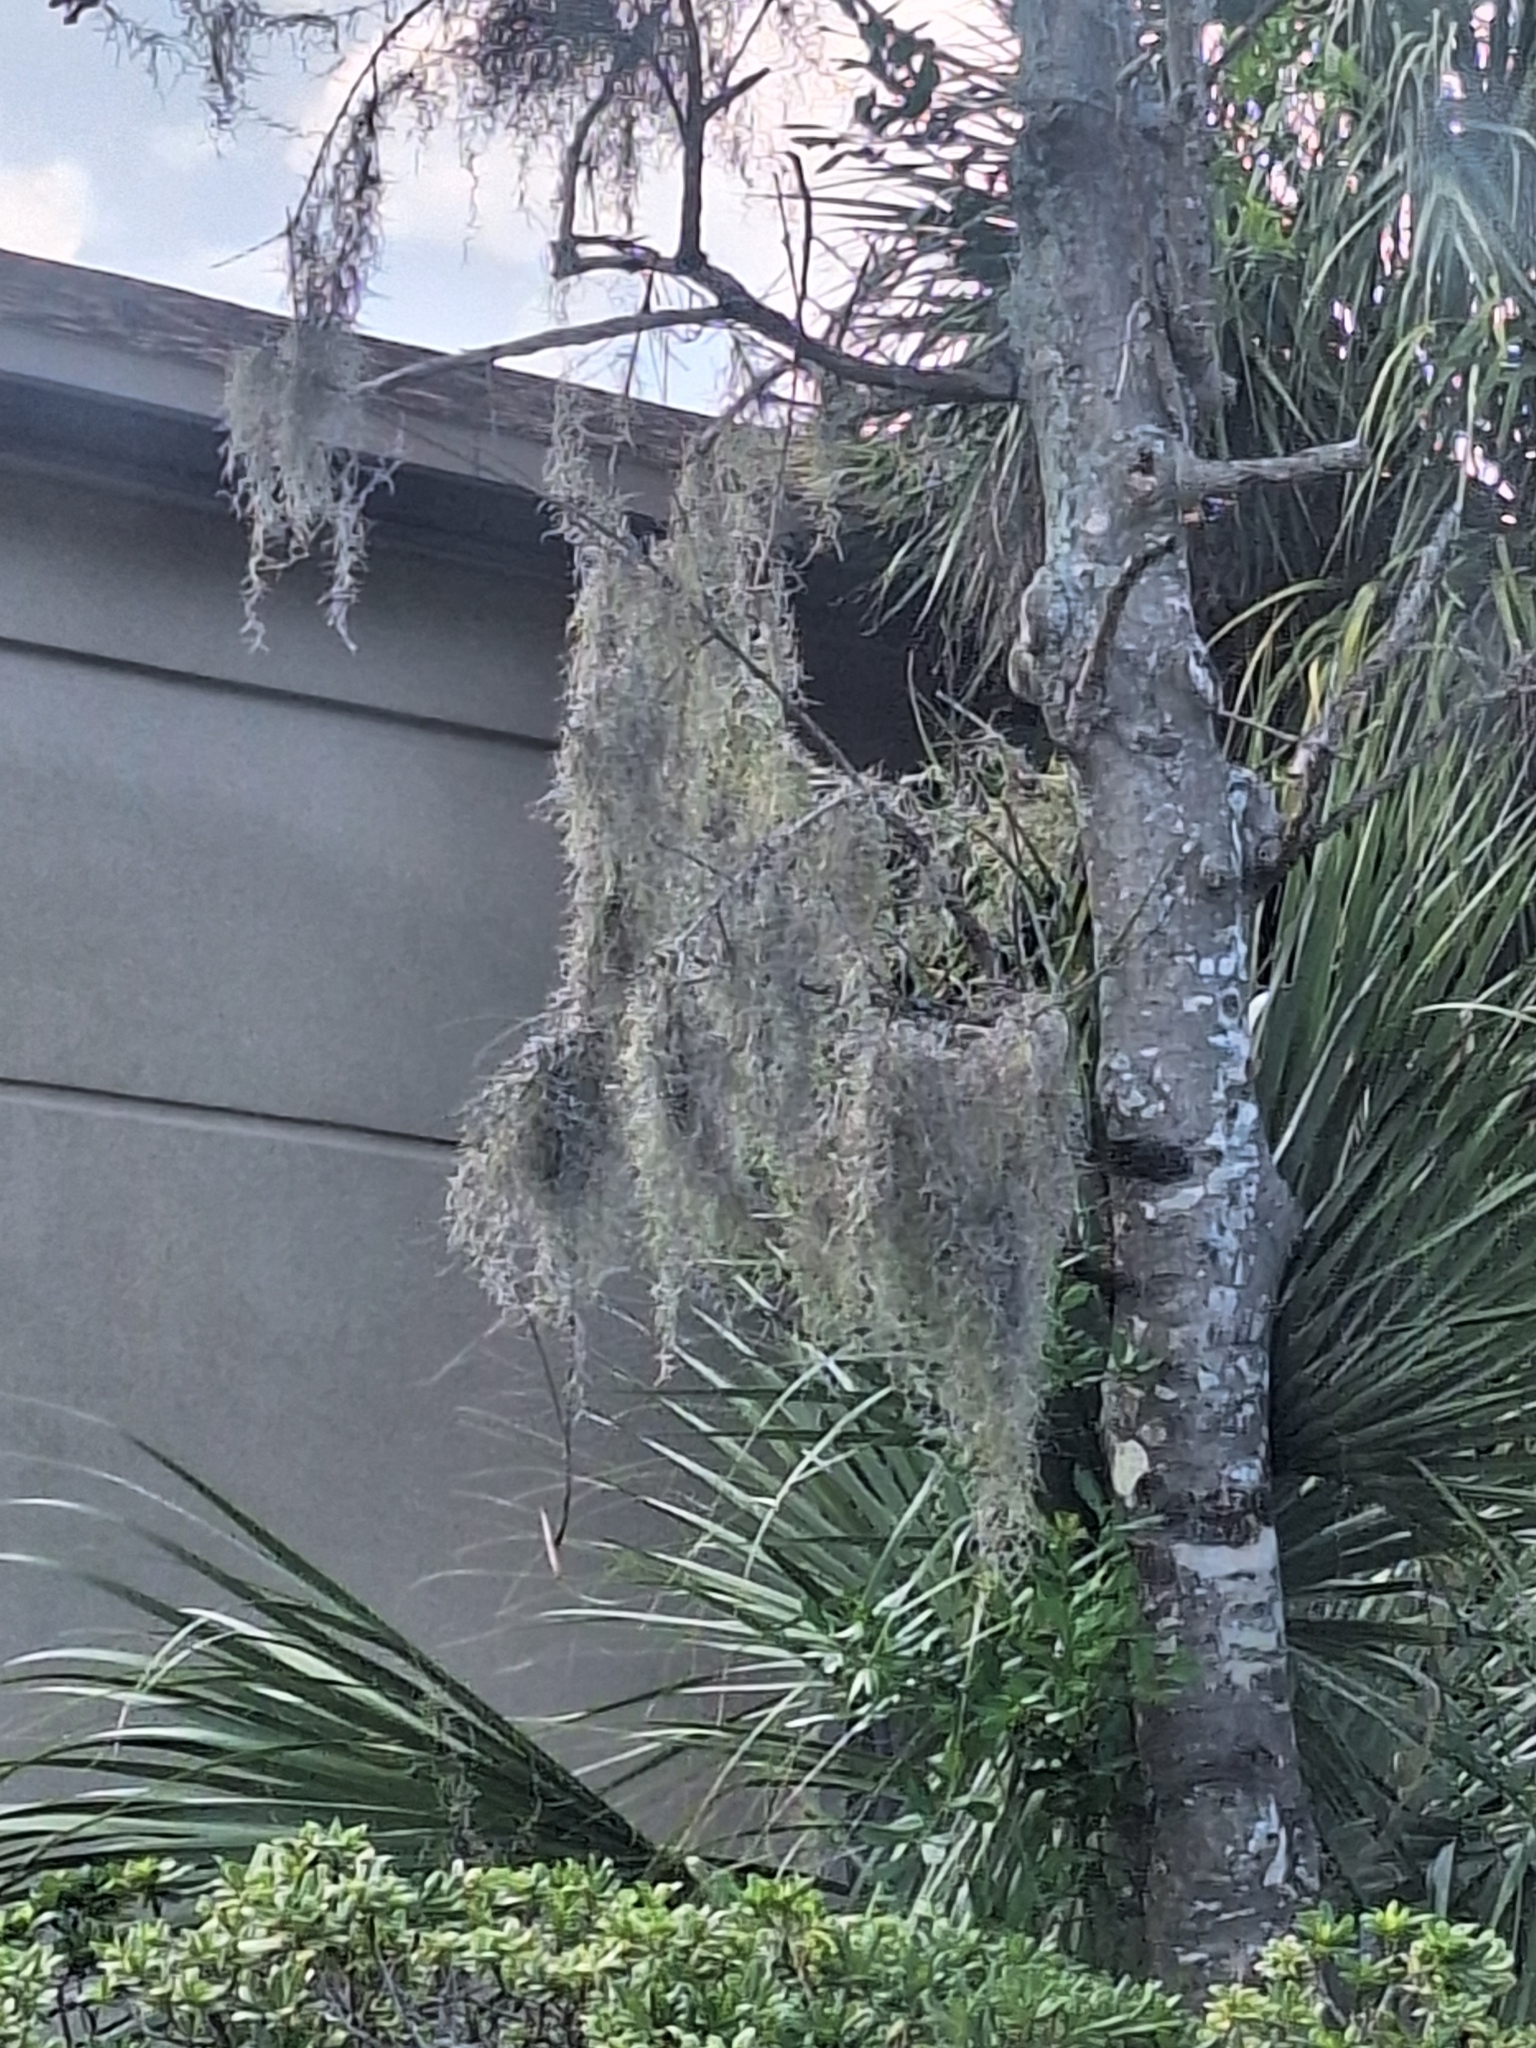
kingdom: Plantae
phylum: Tracheophyta
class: Liliopsida
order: Poales
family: Bromeliaceae
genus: Tillandsia
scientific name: Tillandsia usneoides
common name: Spanish moss
